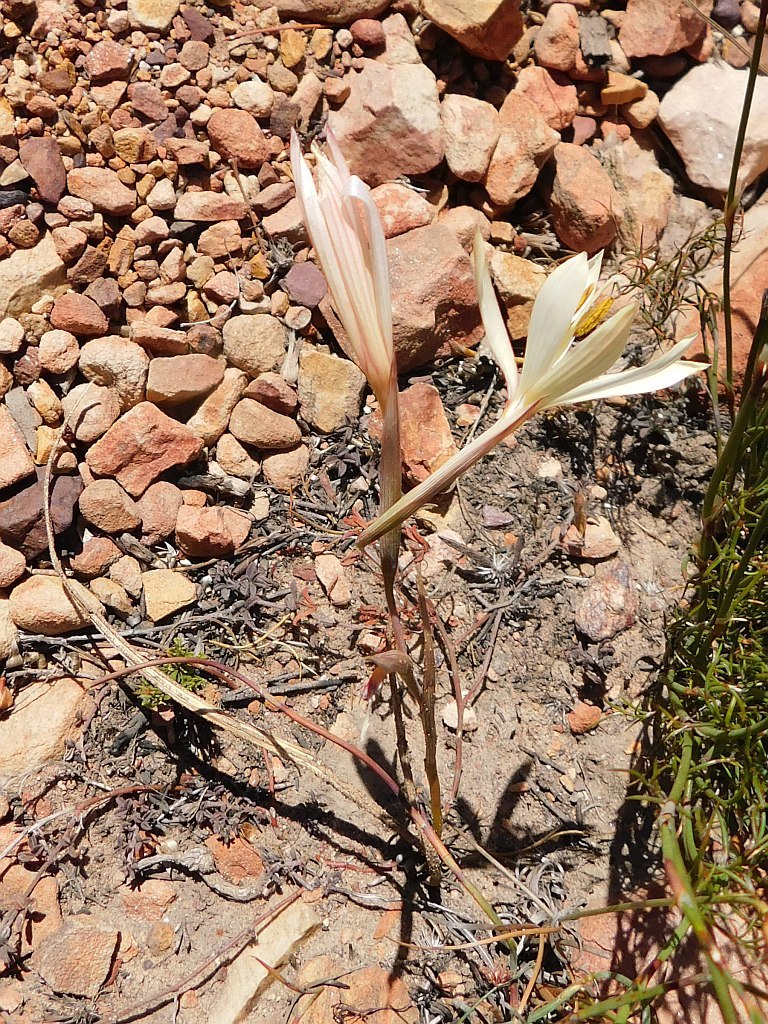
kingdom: Plantae
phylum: Tracheophyta
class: Liliopsida
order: Asparagales
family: Iridaceae
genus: Geissorhiza
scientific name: Geissorhiza schinzii
